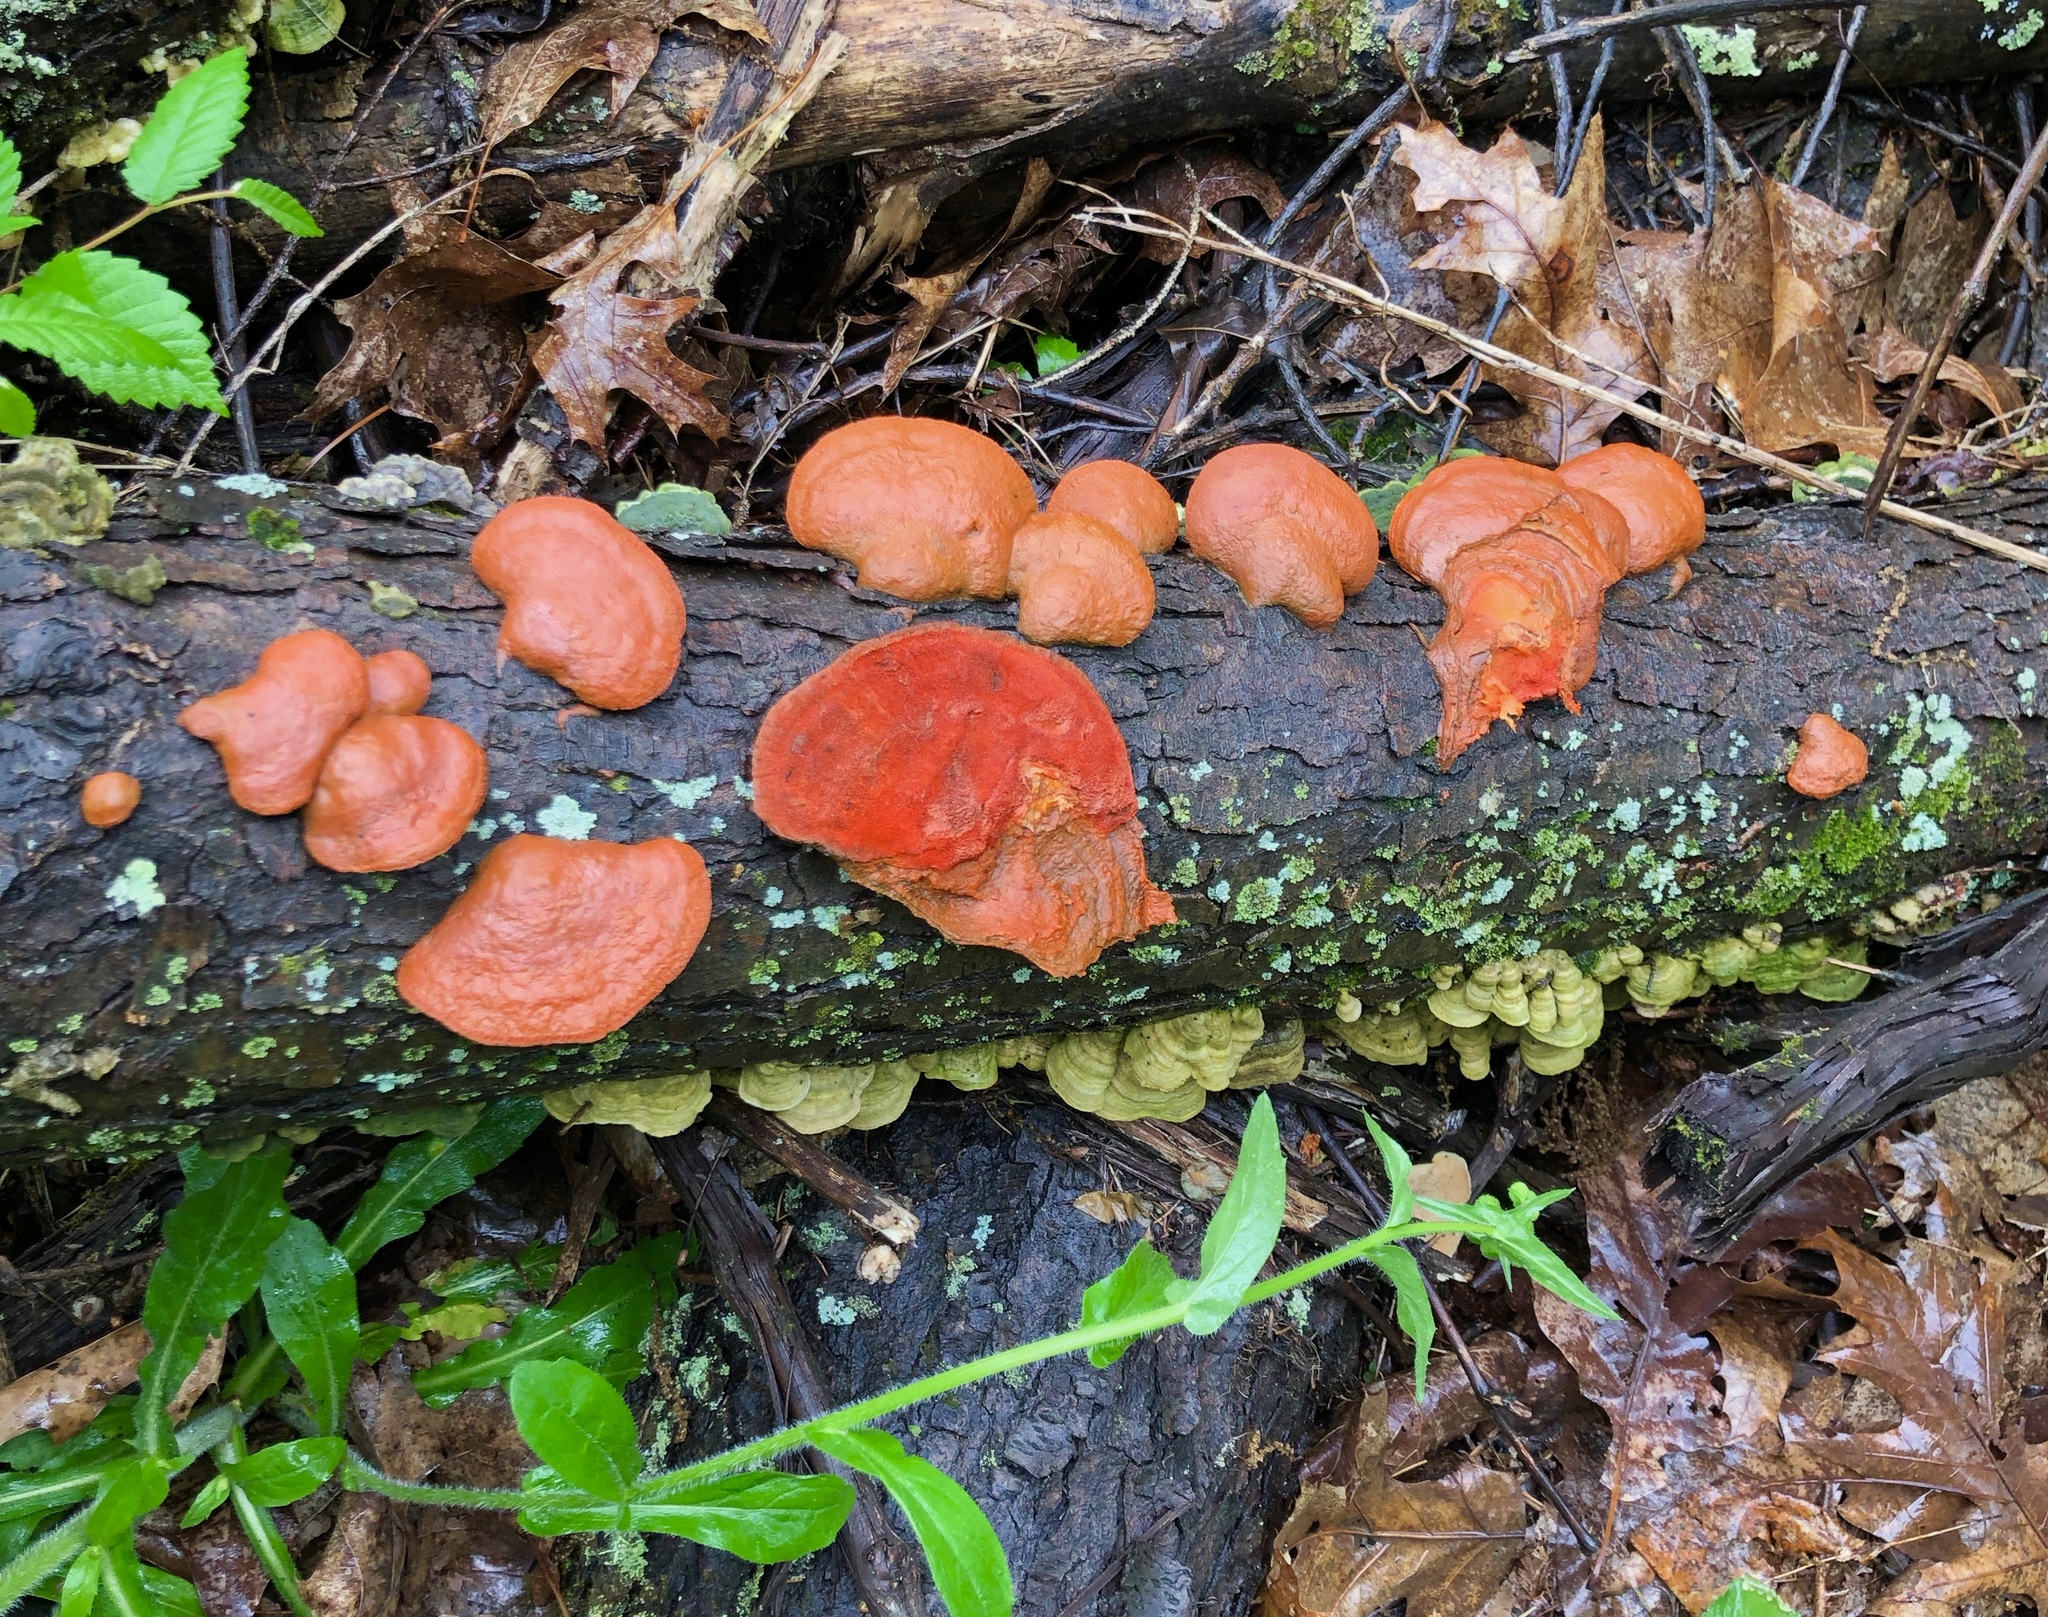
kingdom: Fungi
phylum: Basidiomycota
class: Agaricomycetes
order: Polyporales
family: Polyporaceae
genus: Trametes
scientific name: Trametes cinnabarina
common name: Northern cinnabar polypore
